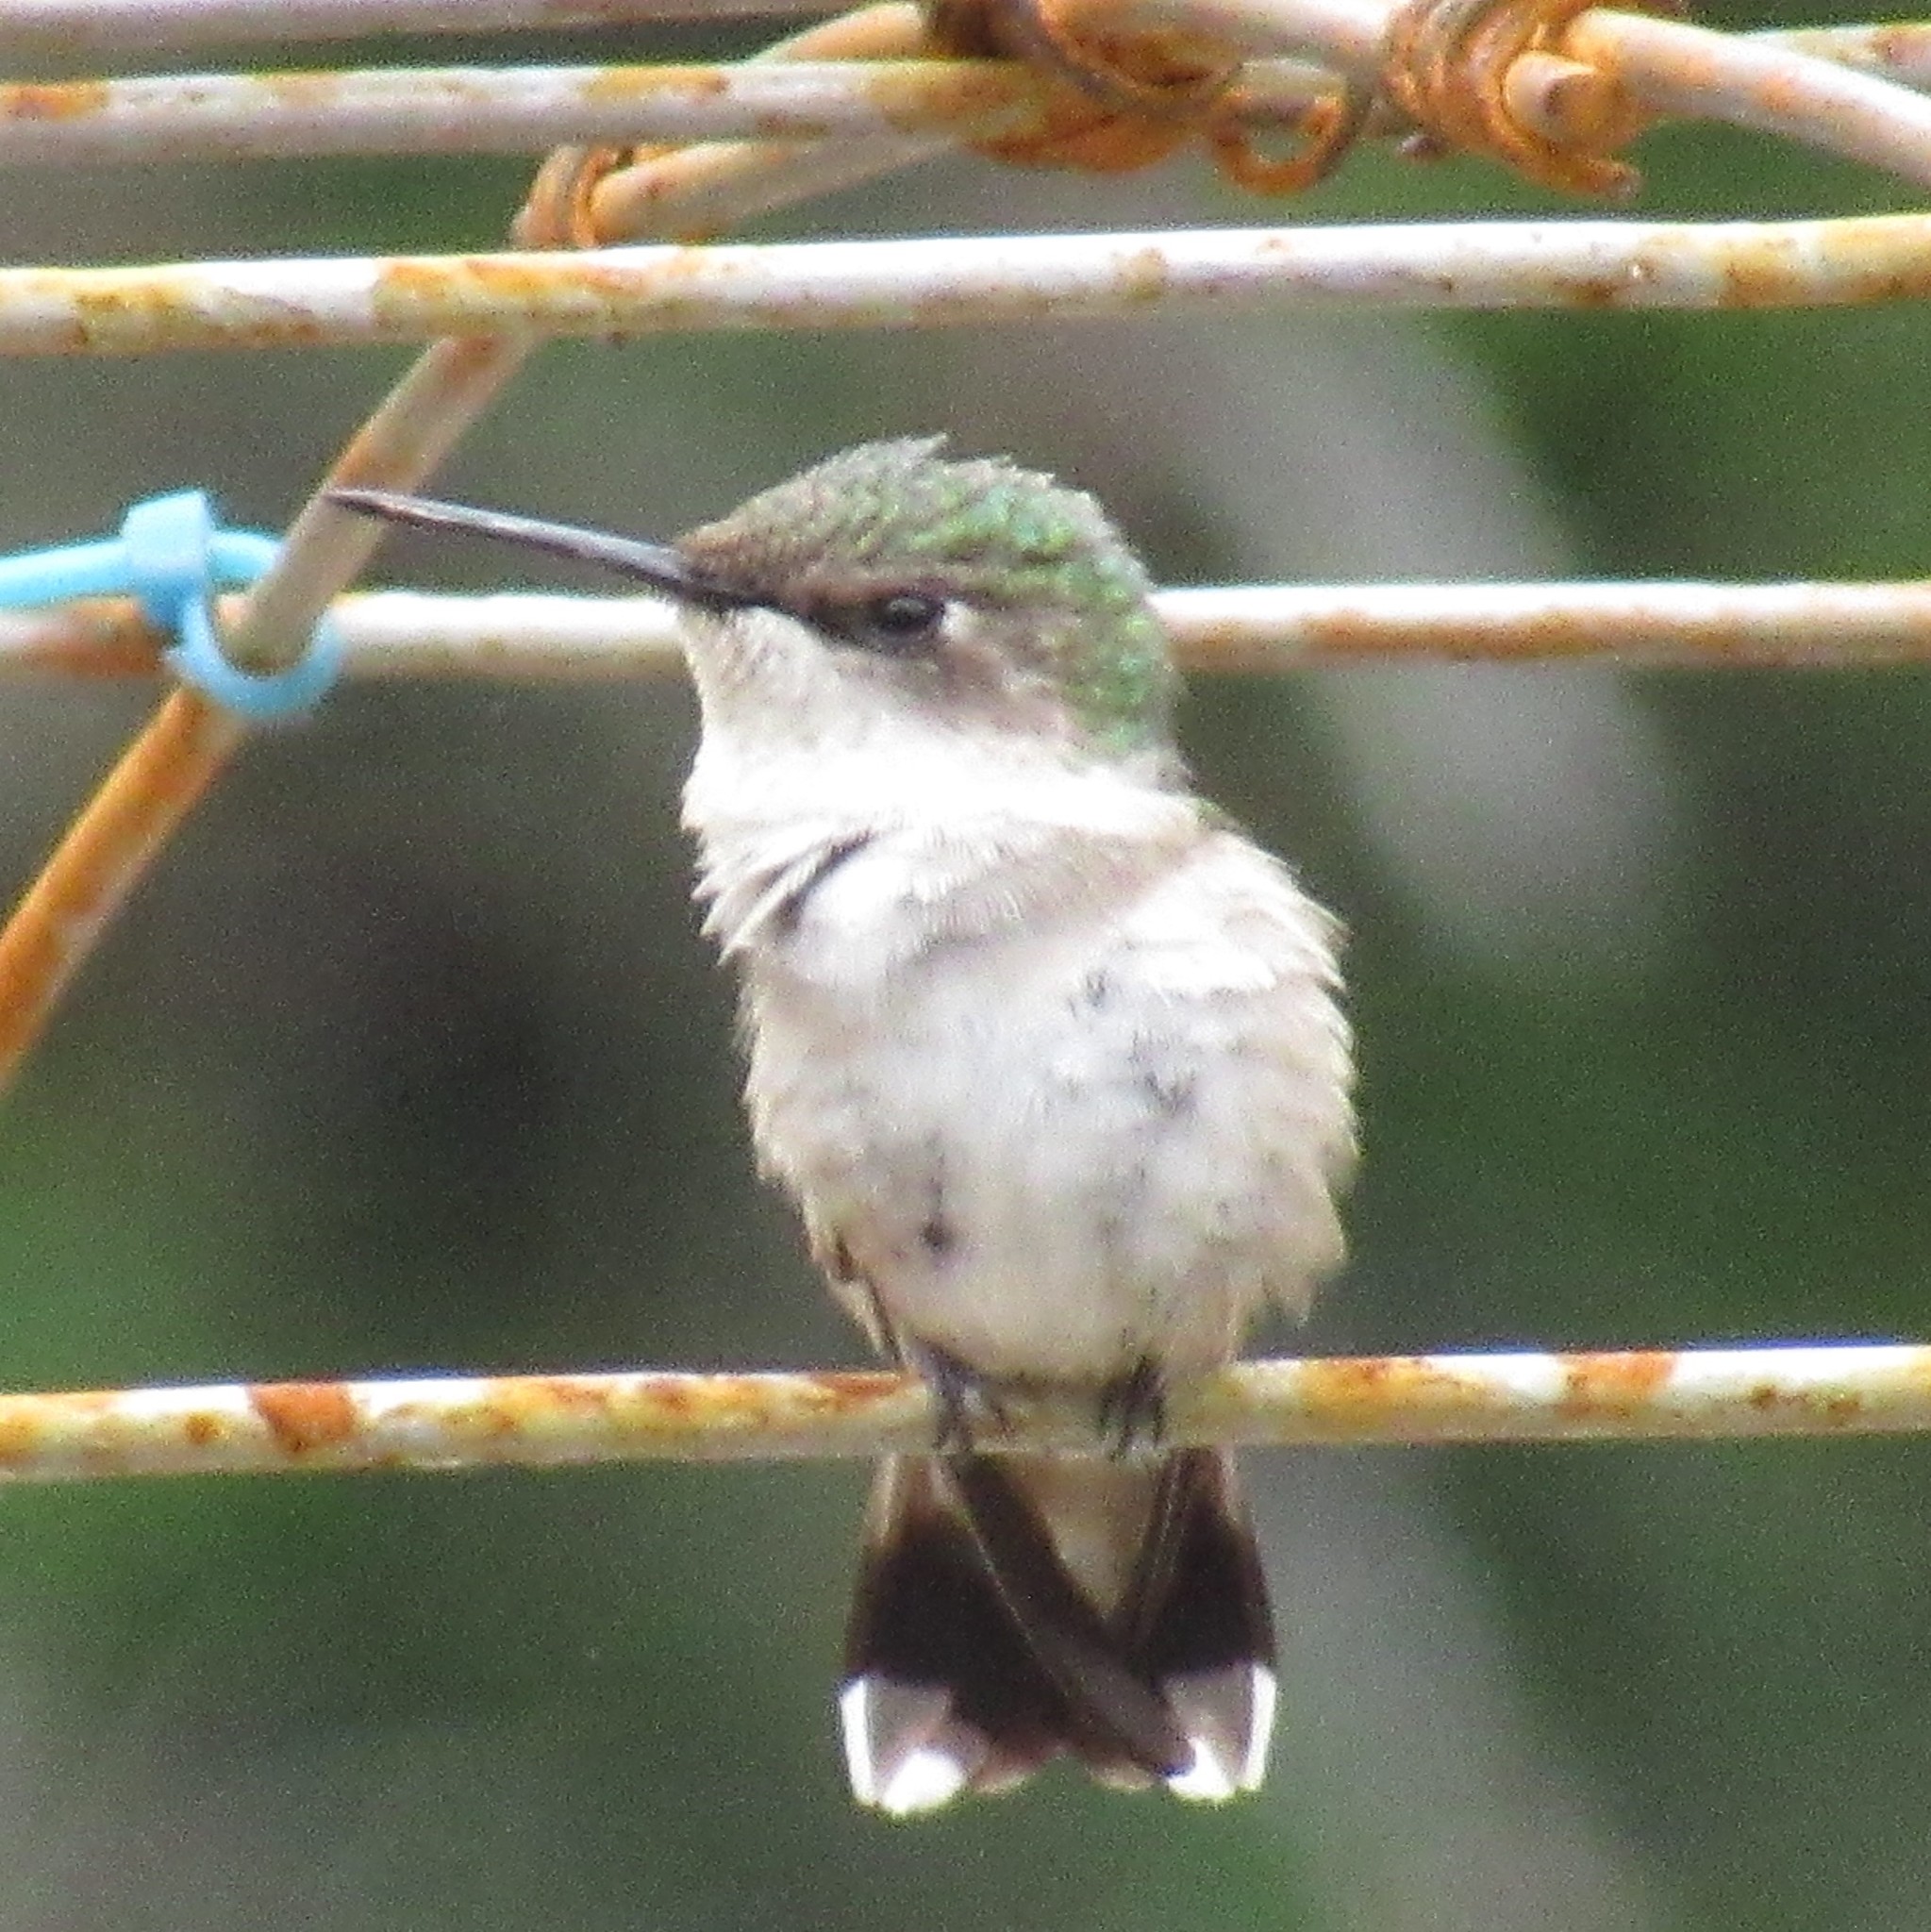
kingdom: Animalia
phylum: Chordata
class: Aves
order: Apodiformes
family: Trochilidae
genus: Archilochus
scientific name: Archilochus colubris
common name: Ruby-throated hummingbird
